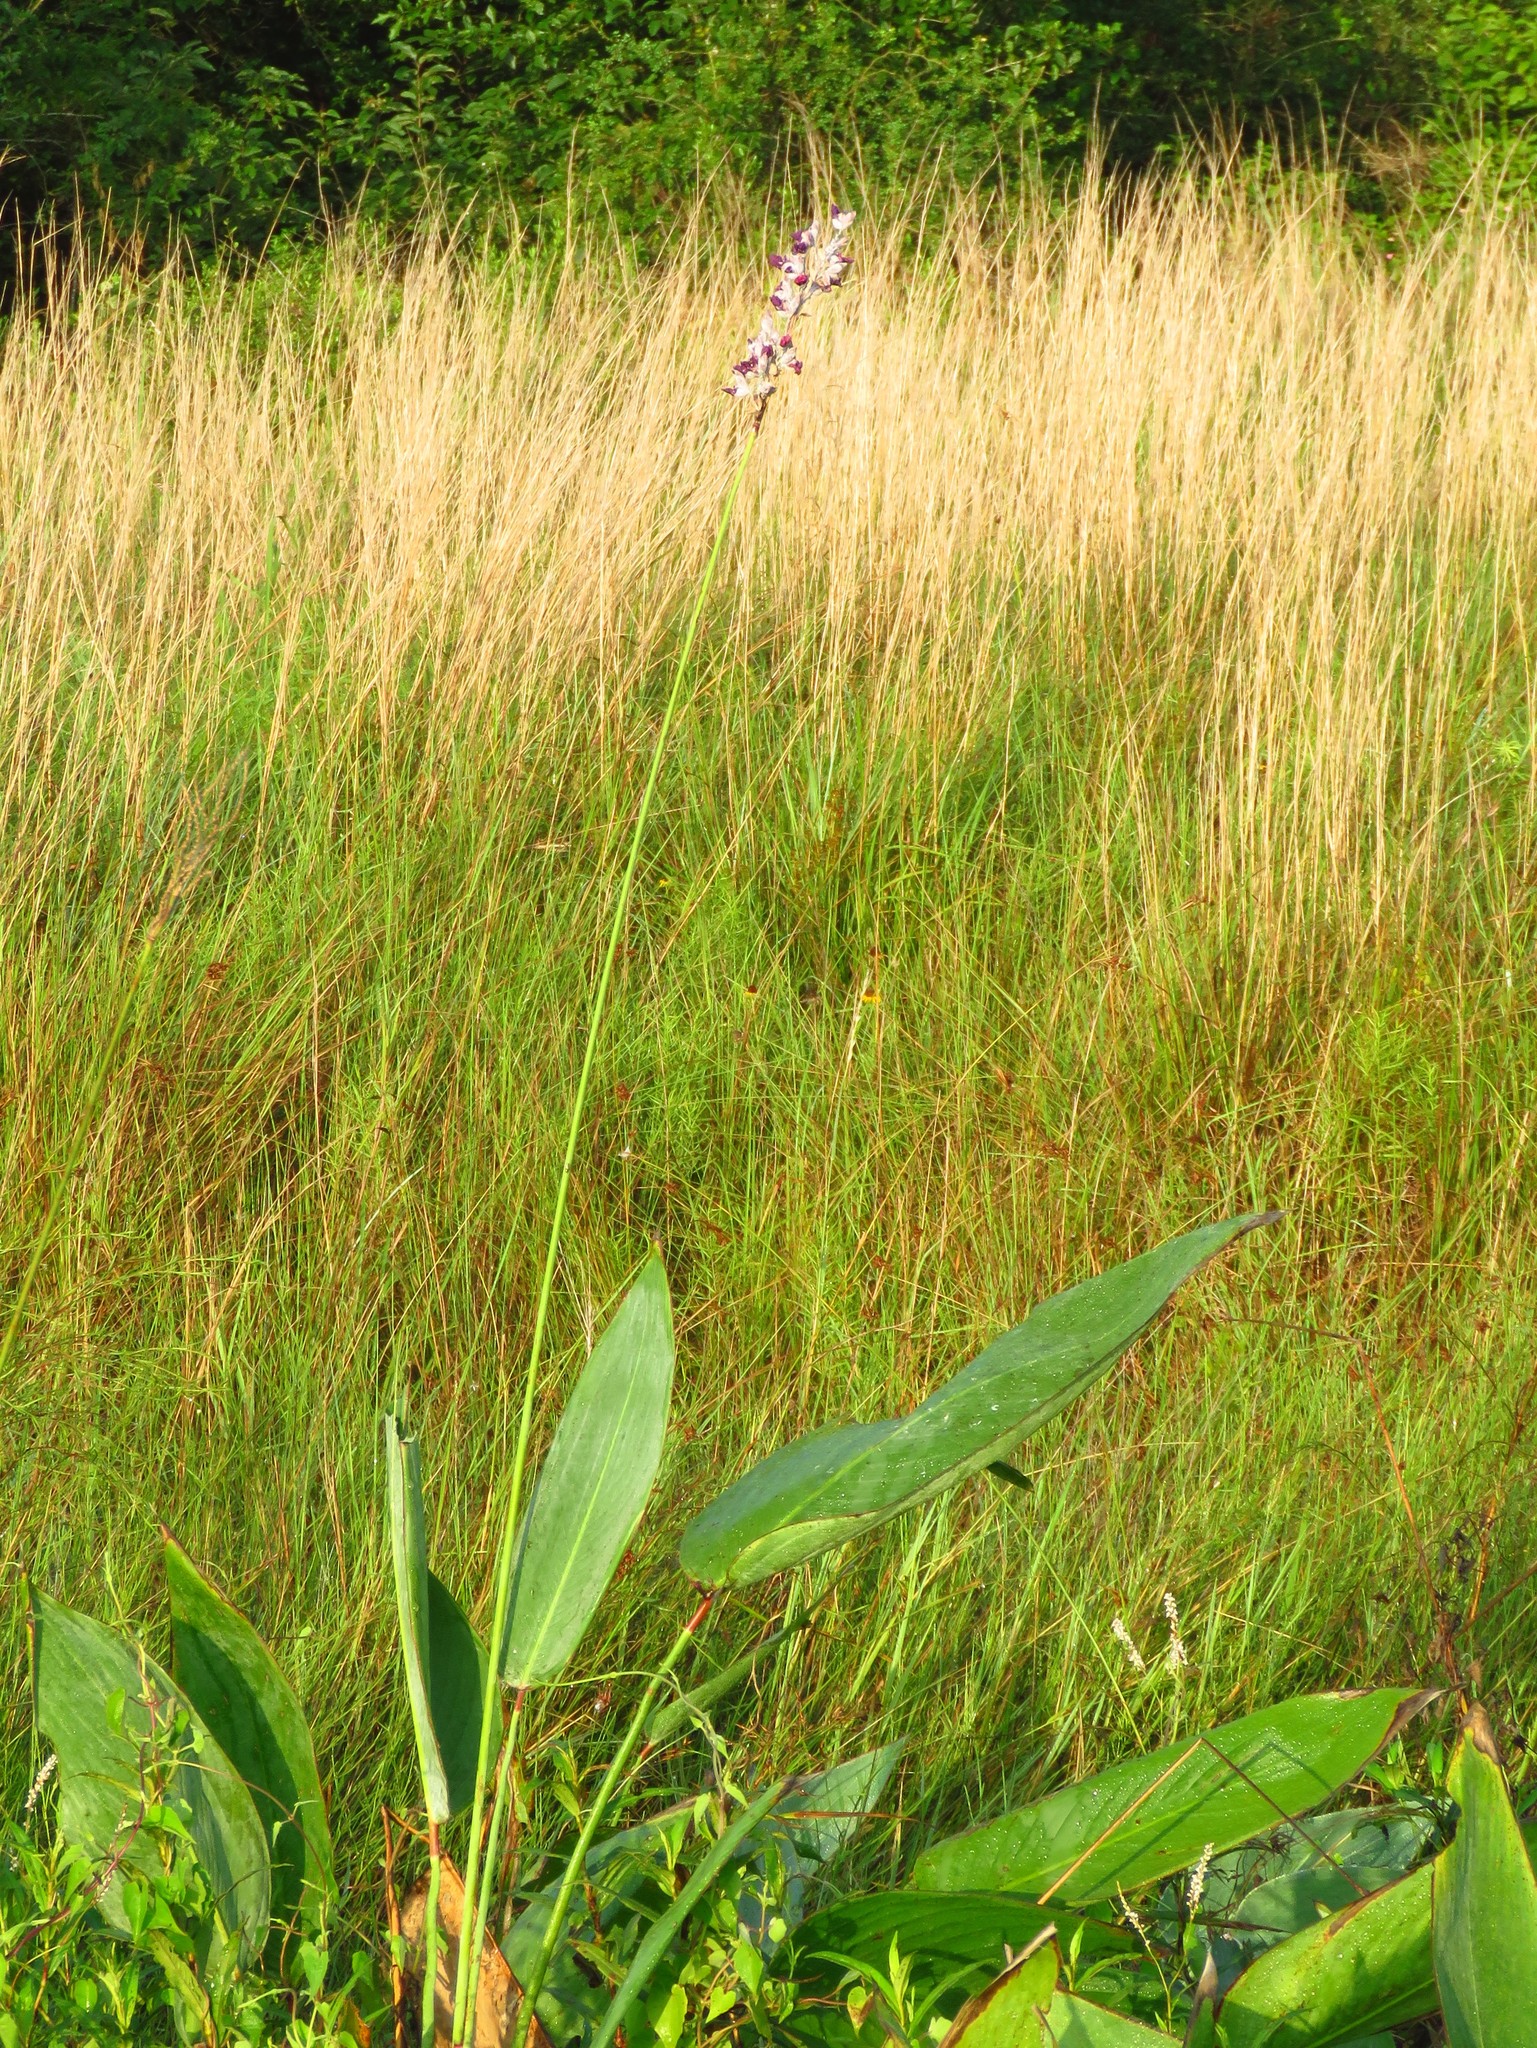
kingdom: Plantae
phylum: Tracheophyta
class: Liliopsida
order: Zingiberales
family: Marantaceae
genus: Thalia
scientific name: Thalia dealbata
